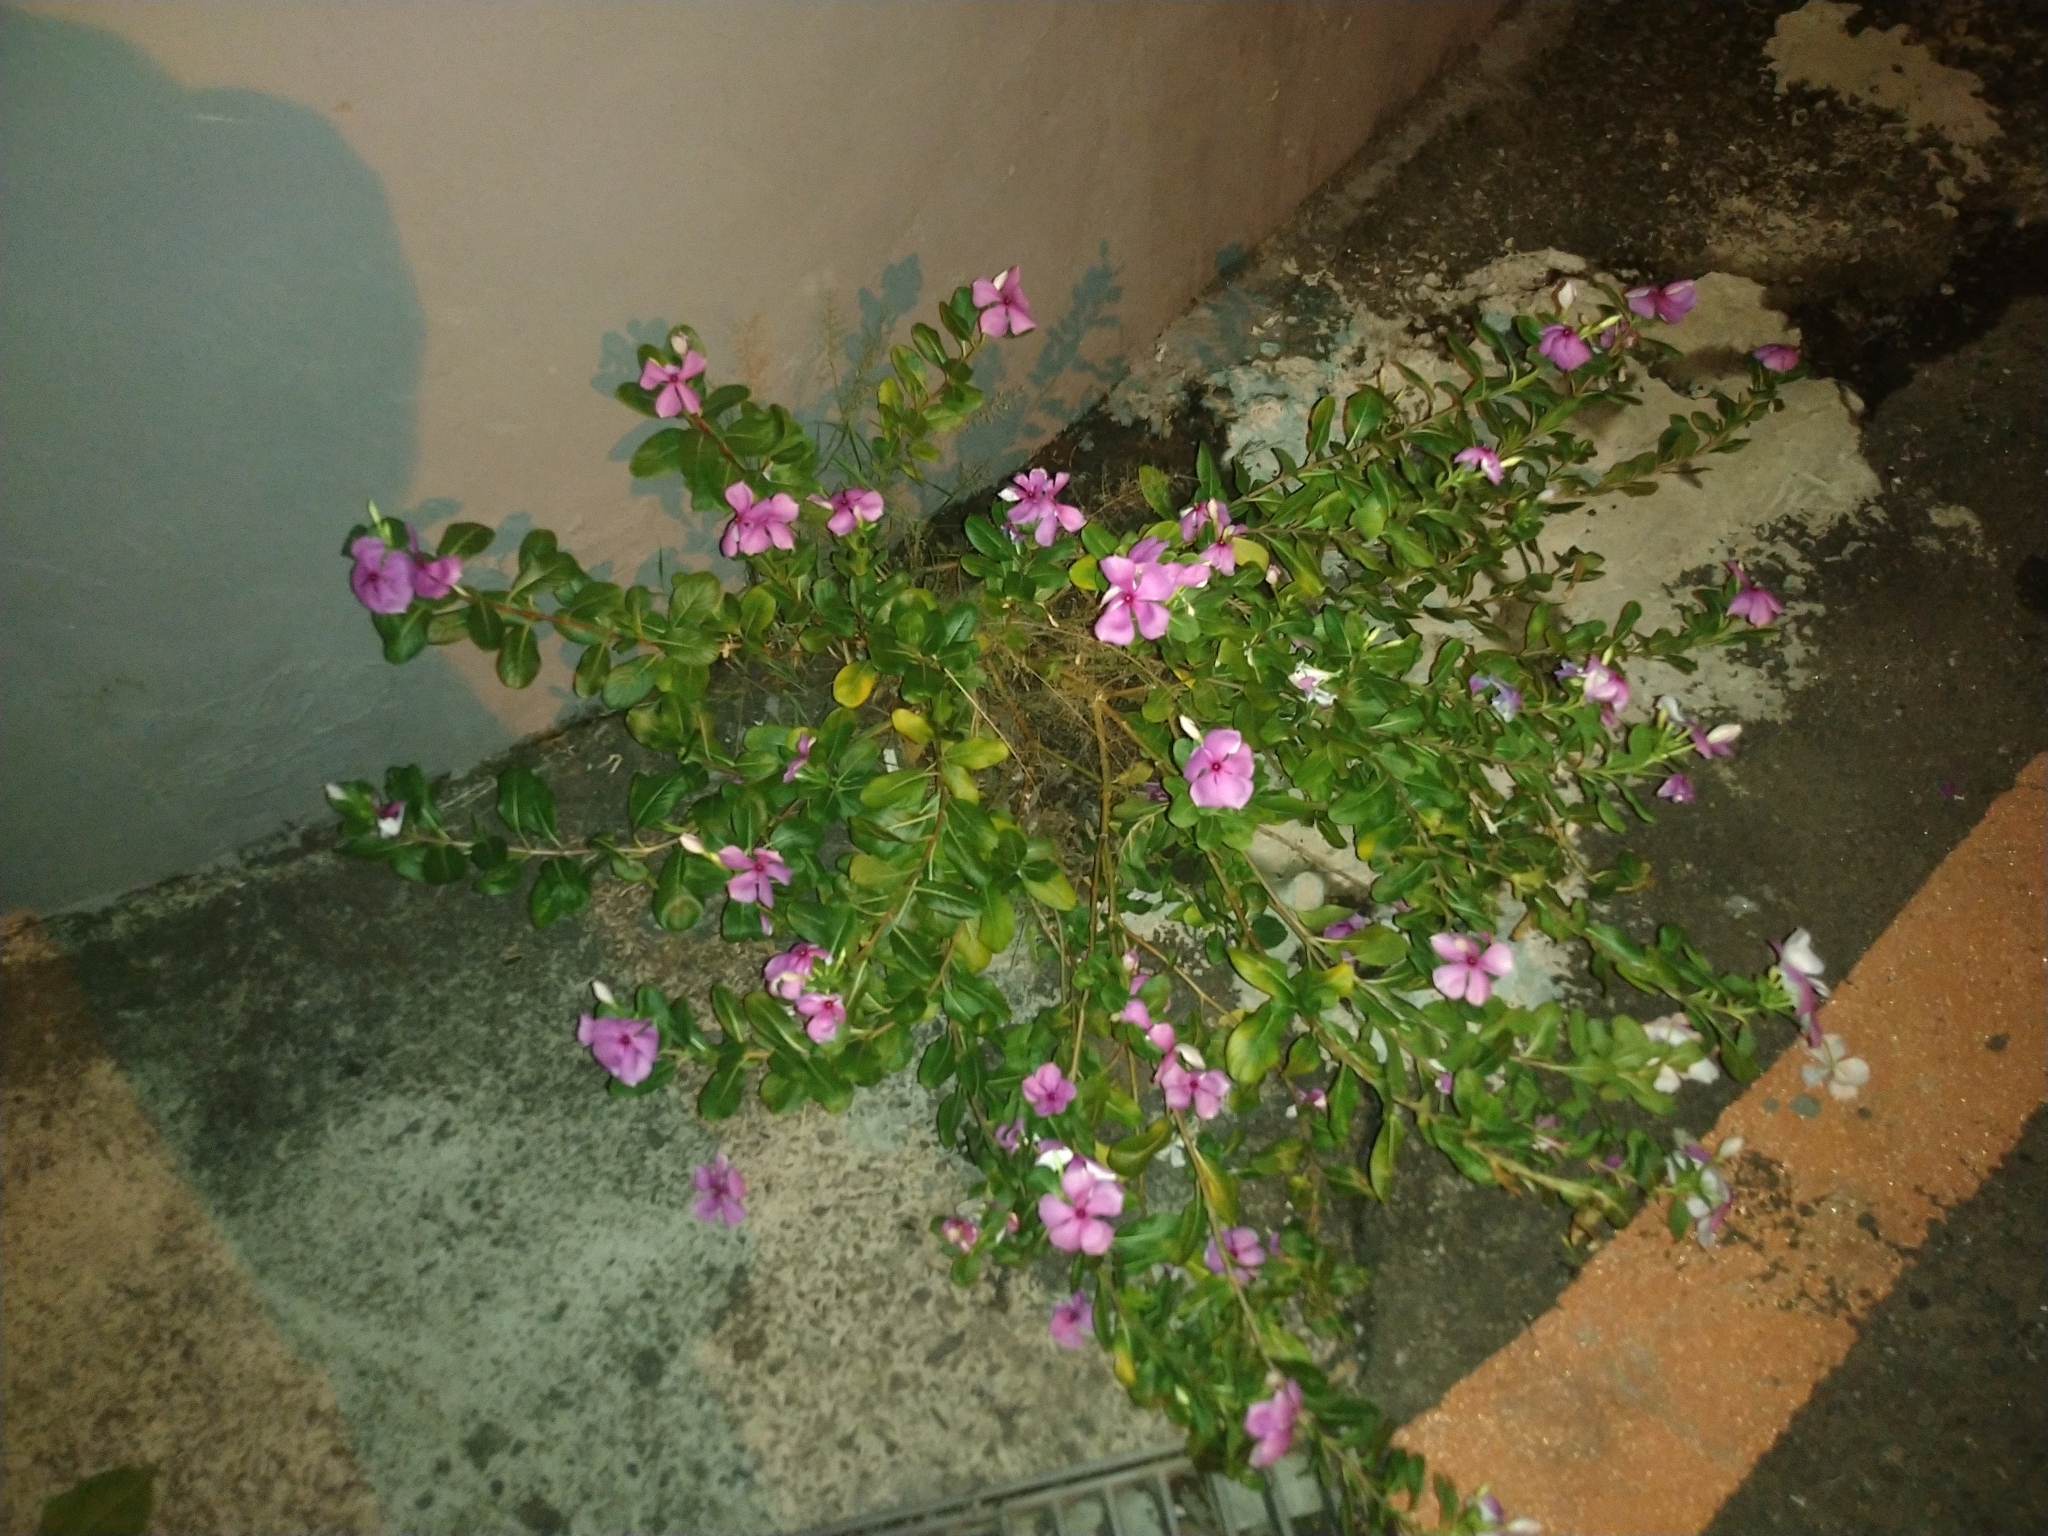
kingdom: Plantae
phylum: Tracheophyta
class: Magnoliopsida
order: Gentianales
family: Apocynaceae
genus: Catharanthus
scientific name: Catharanthus roseus
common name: Madagascar periwinkle
